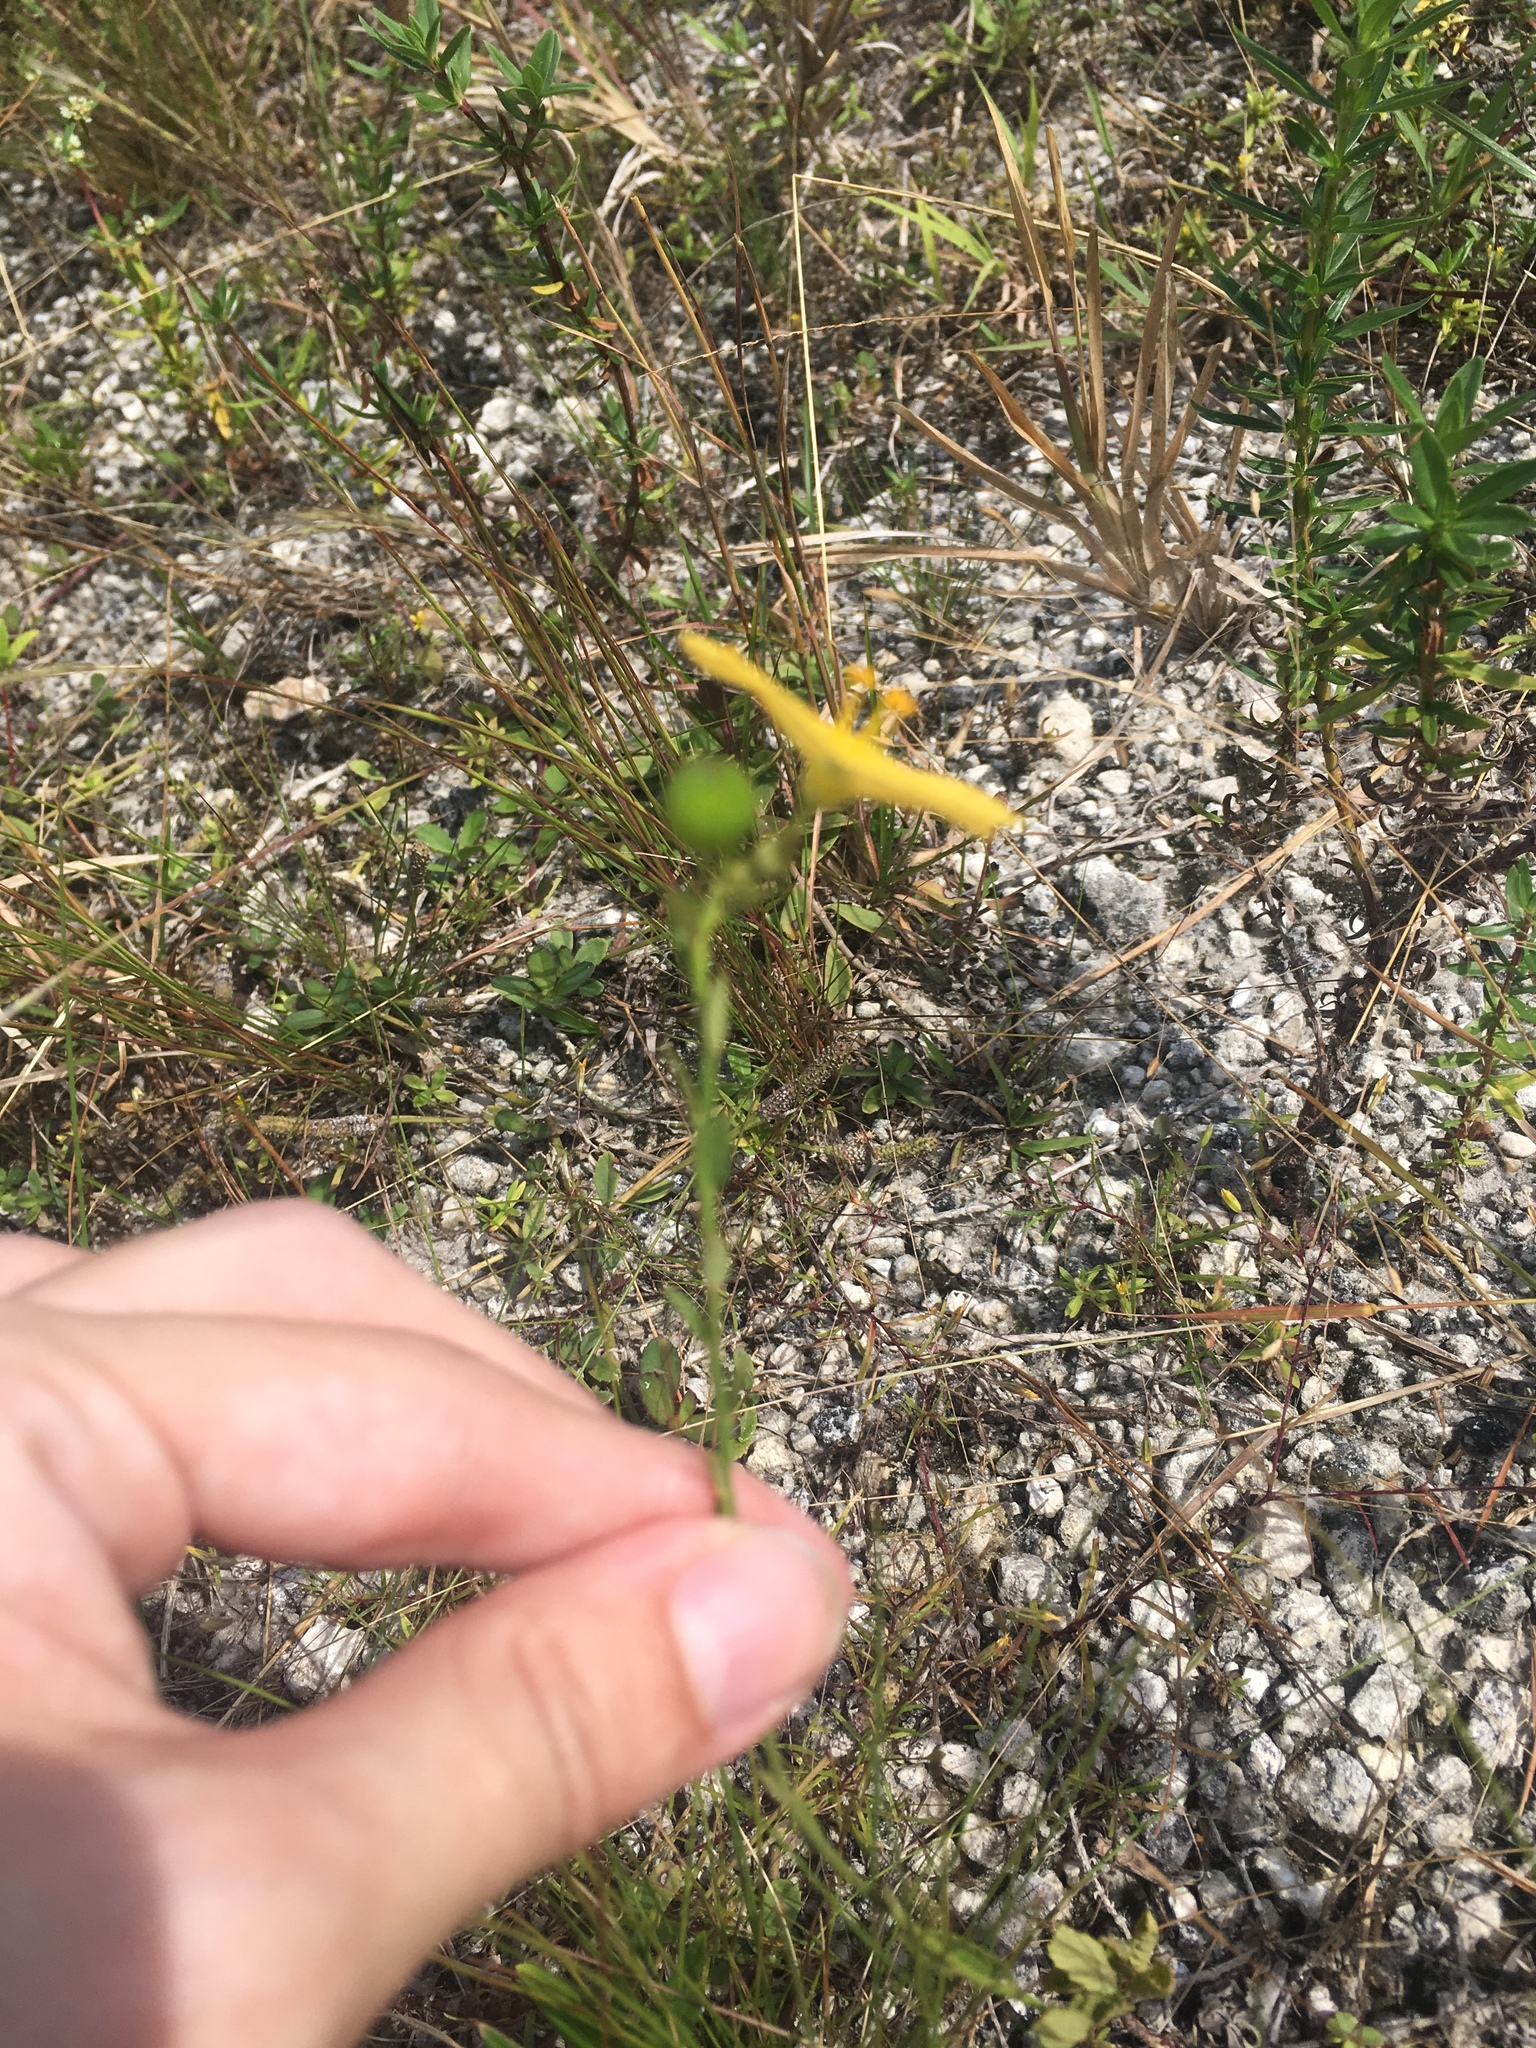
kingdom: Plantae
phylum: Tracheophyta
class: Magnoliopsida
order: Malpighiales
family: Turneraceae
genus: Piriqueta
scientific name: Piriqueta cistoides
